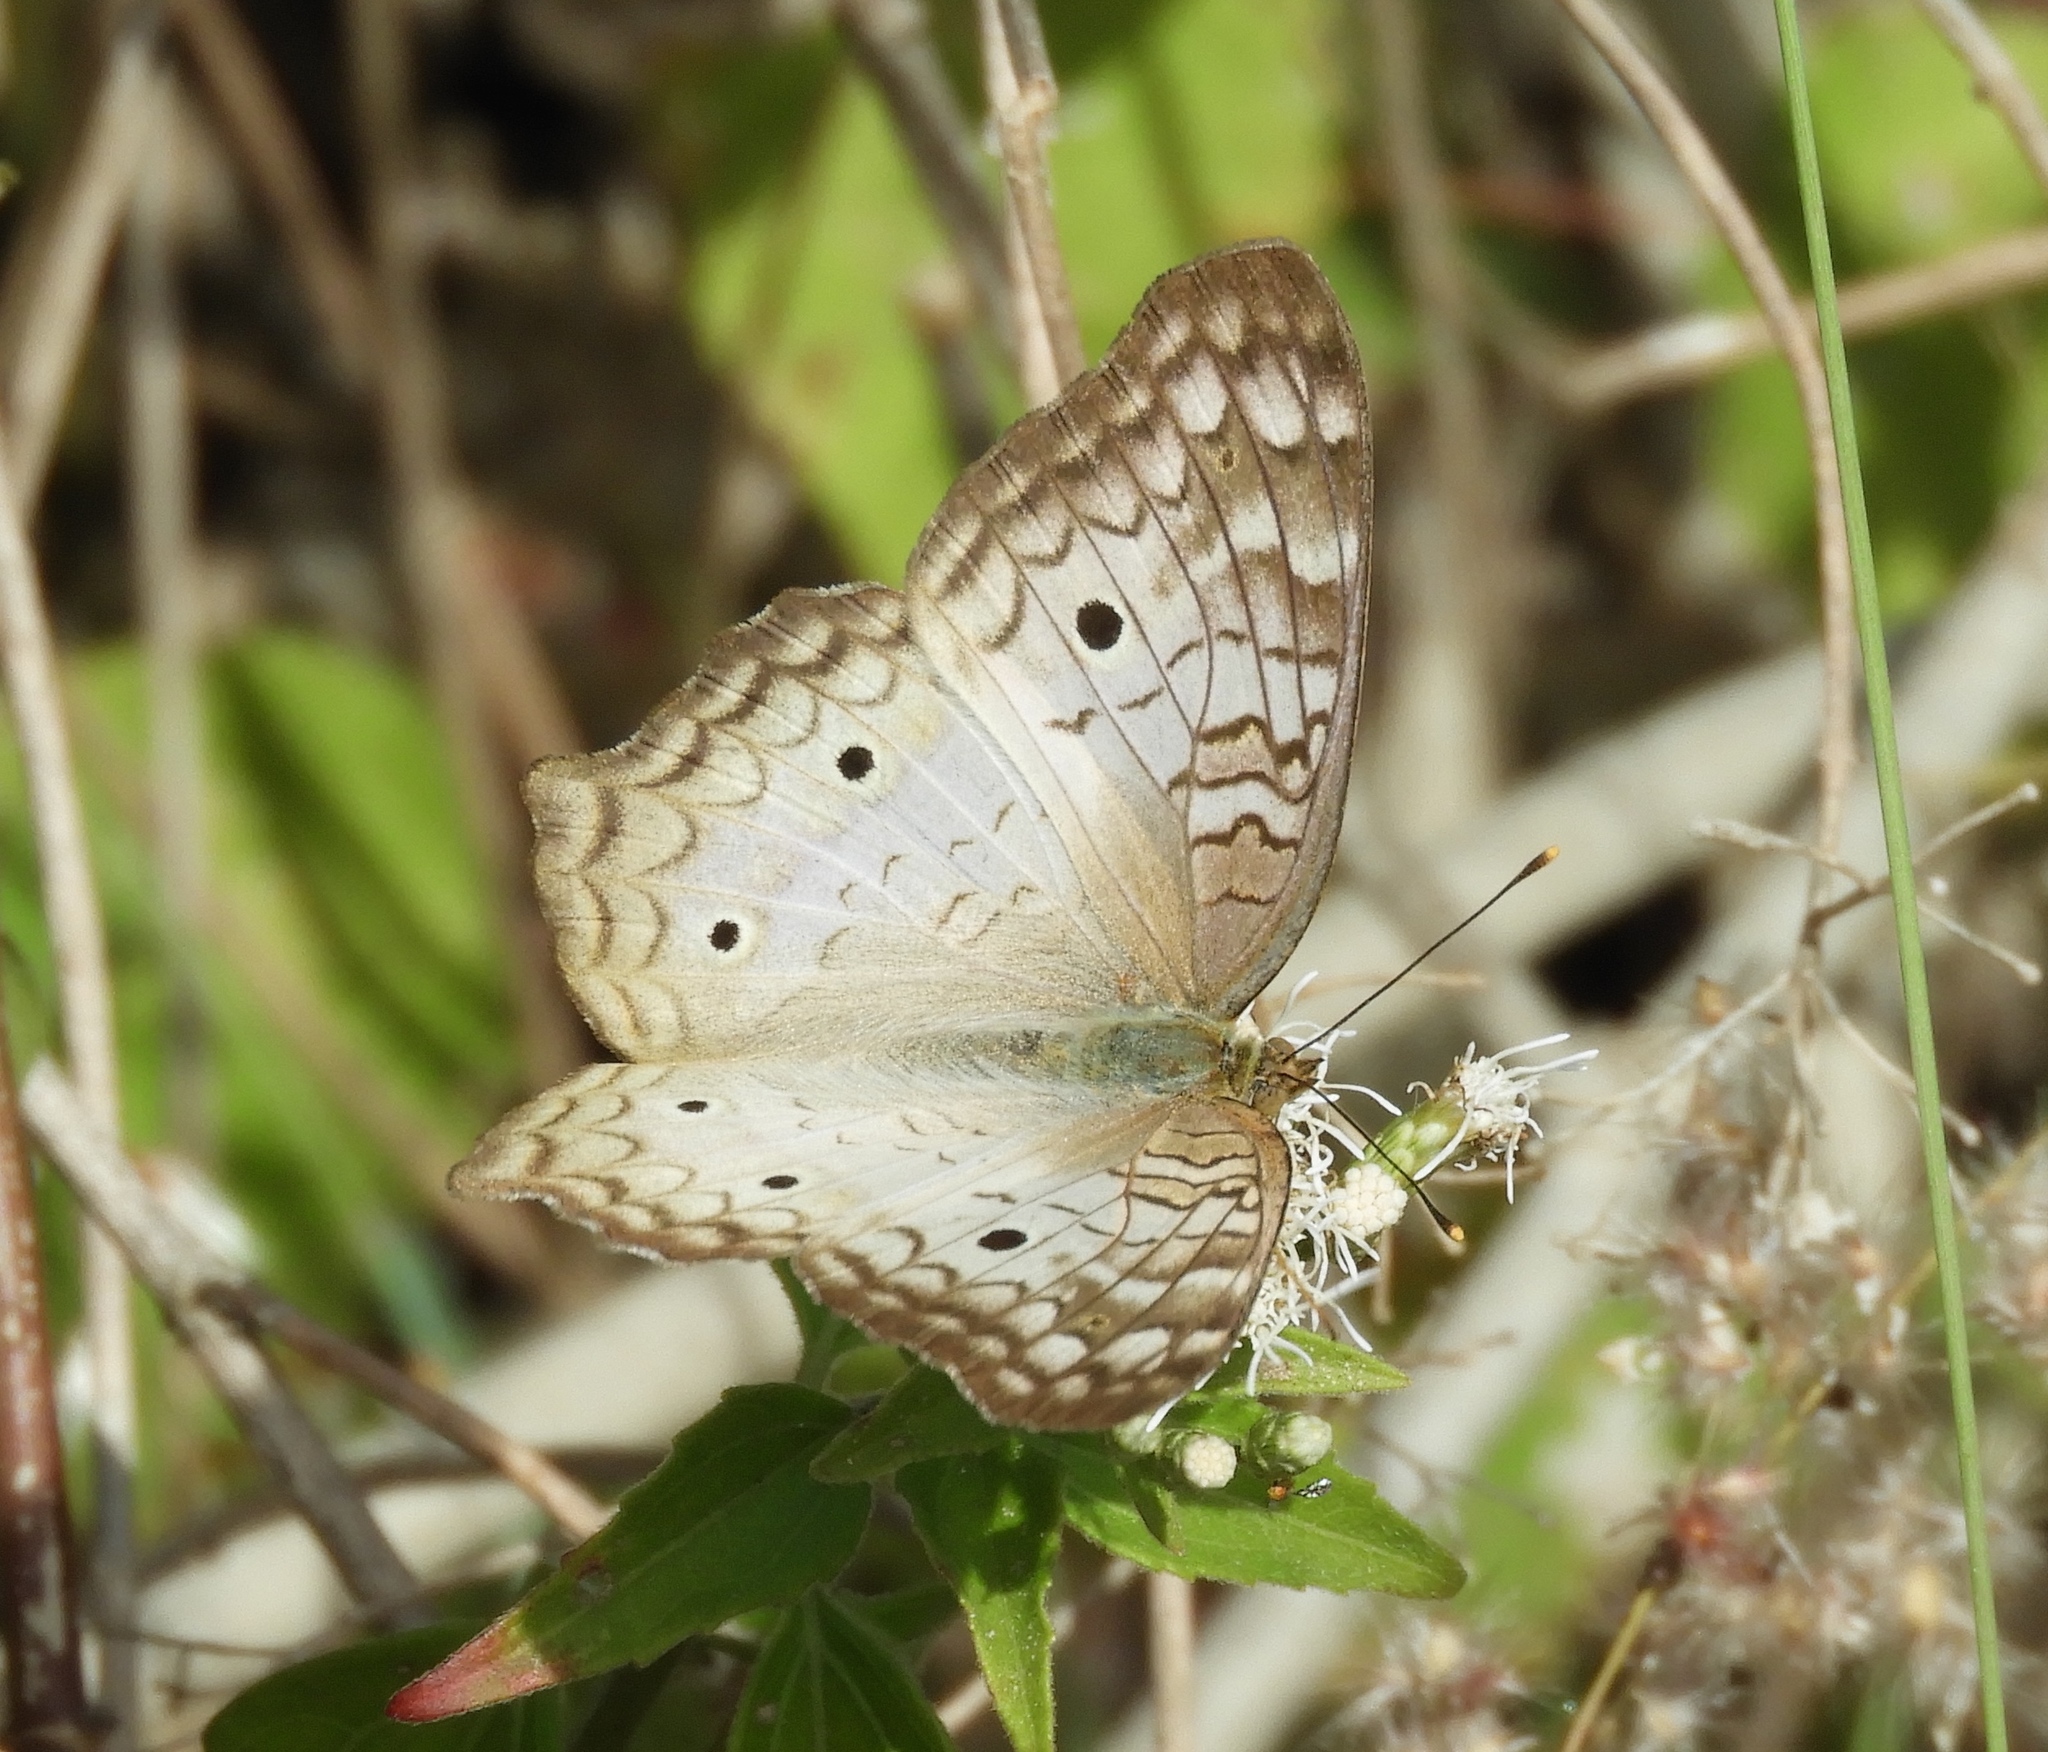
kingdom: Animalia
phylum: Arthropoda
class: Insecta
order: Lepidoptera
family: Nymphalidae
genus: Anartia
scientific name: Anartia jatrophae
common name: White peacock
